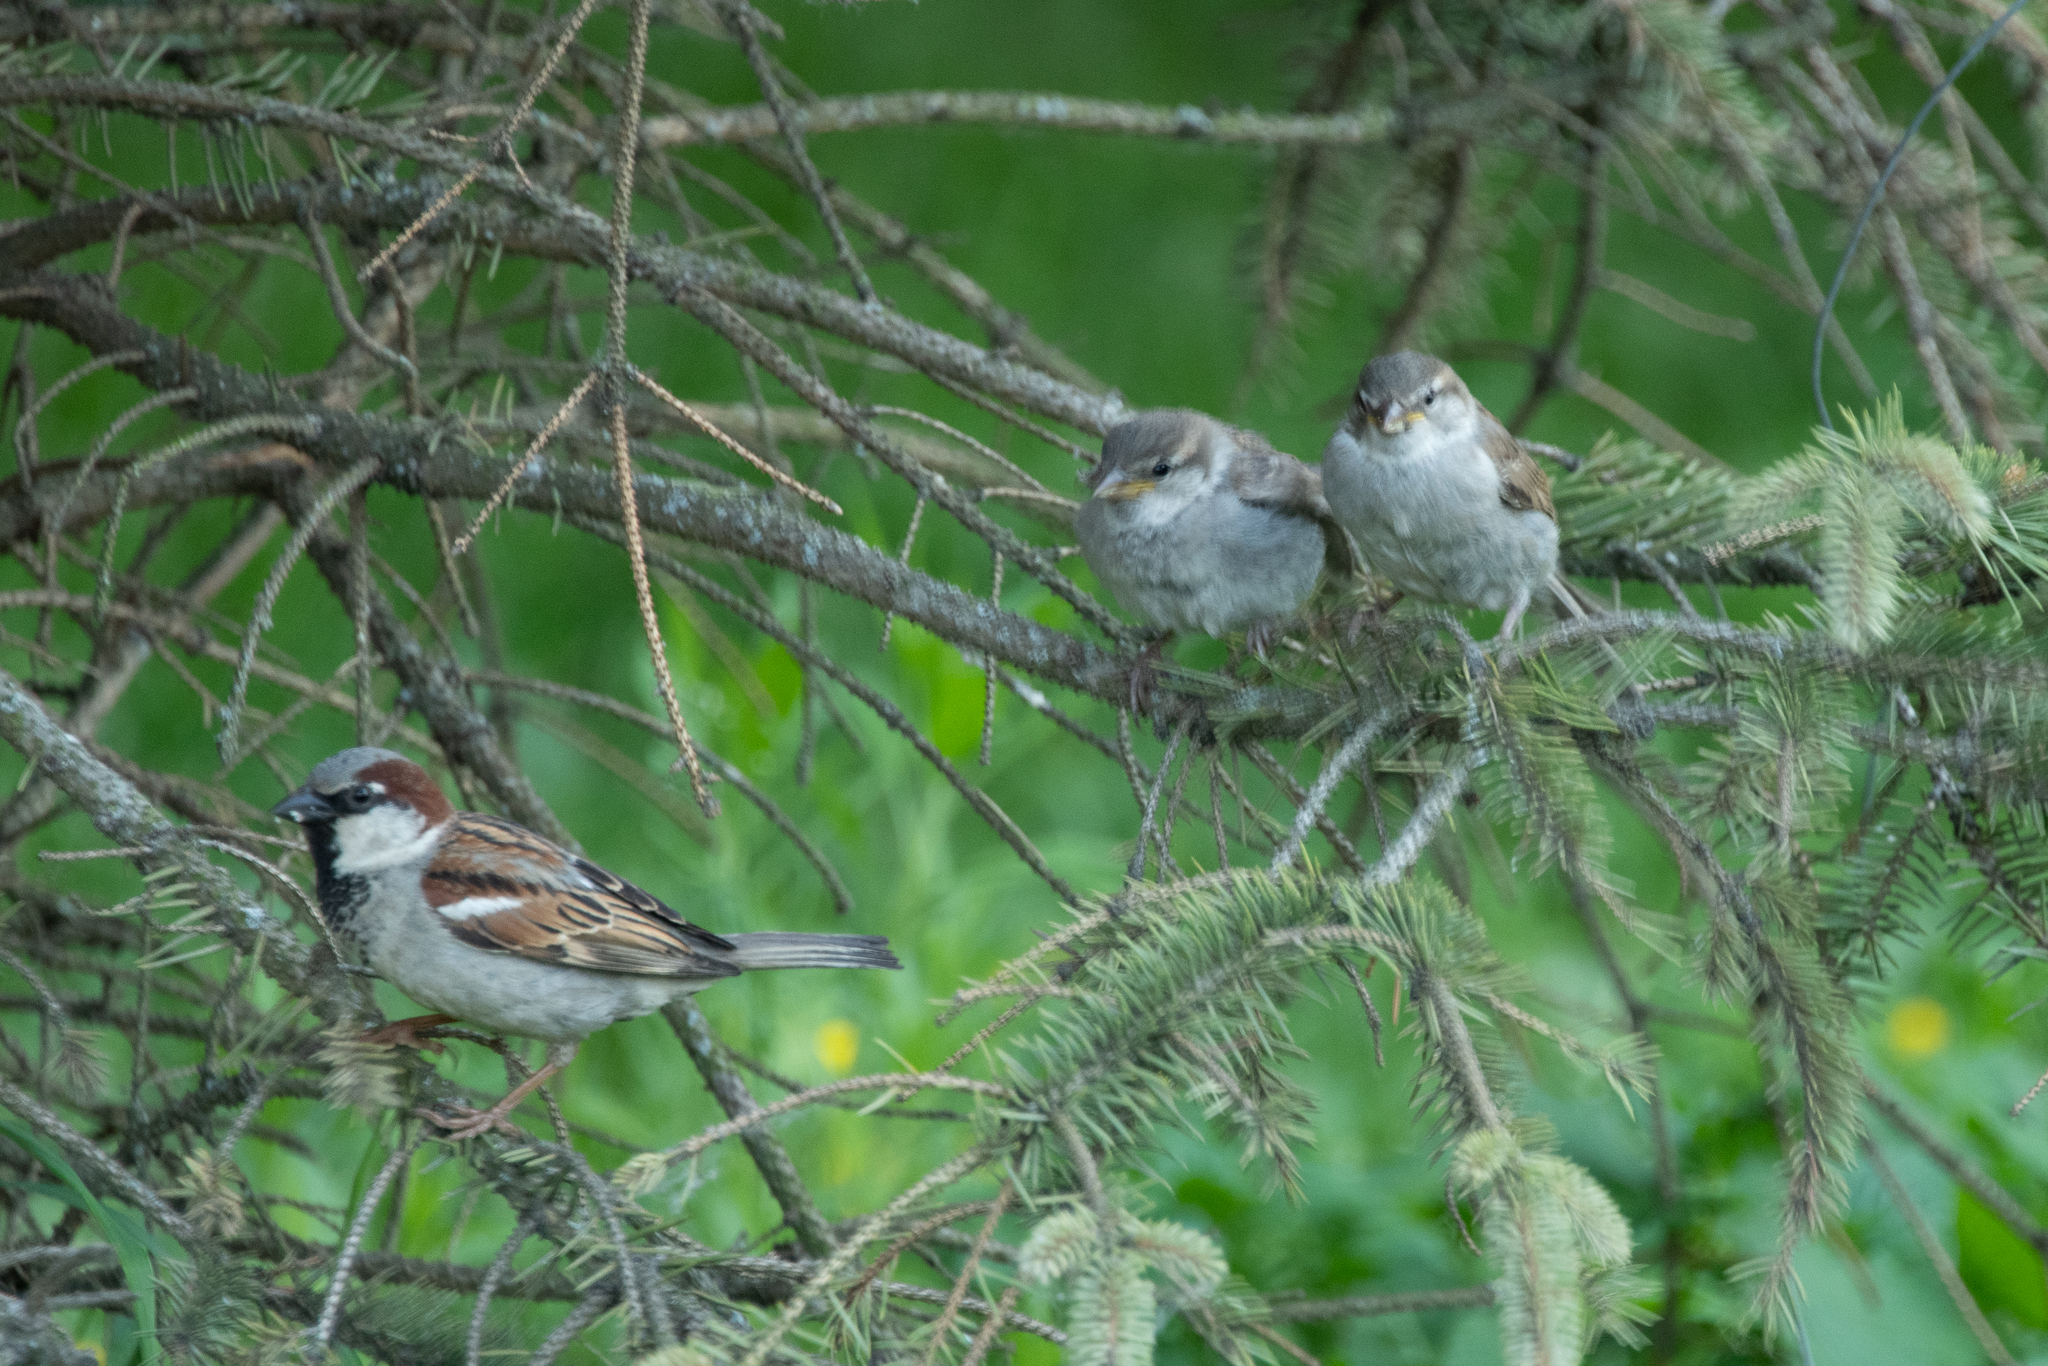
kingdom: Animalia
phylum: Chordata
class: Aves
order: Passeriformes
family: Passeridae
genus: Passer
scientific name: Passer domesticus
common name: House sparrow
